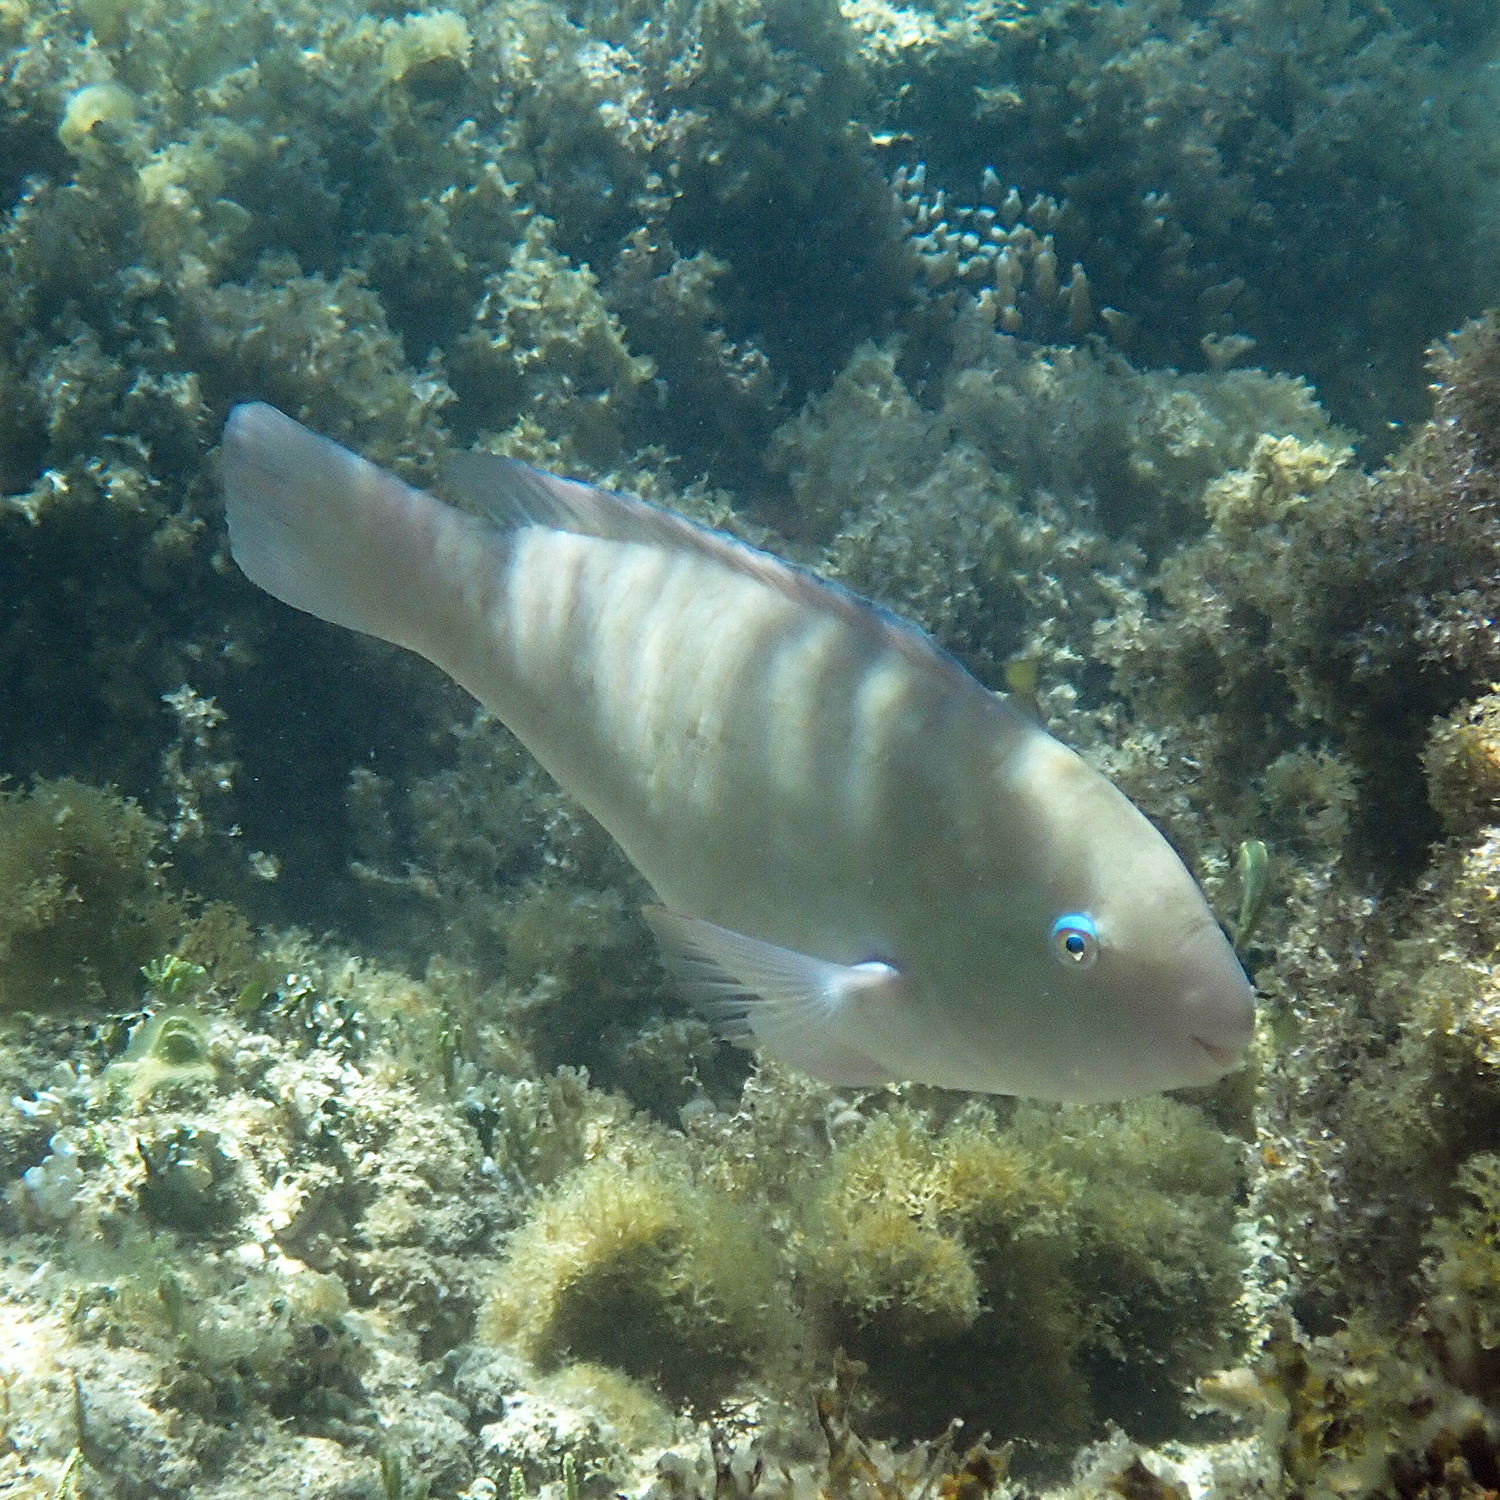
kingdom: Animalia
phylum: Chordata
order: Perciformes
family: Scaridae
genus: Scarus
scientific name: Scarus rivulatus
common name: Surf parrotfish
